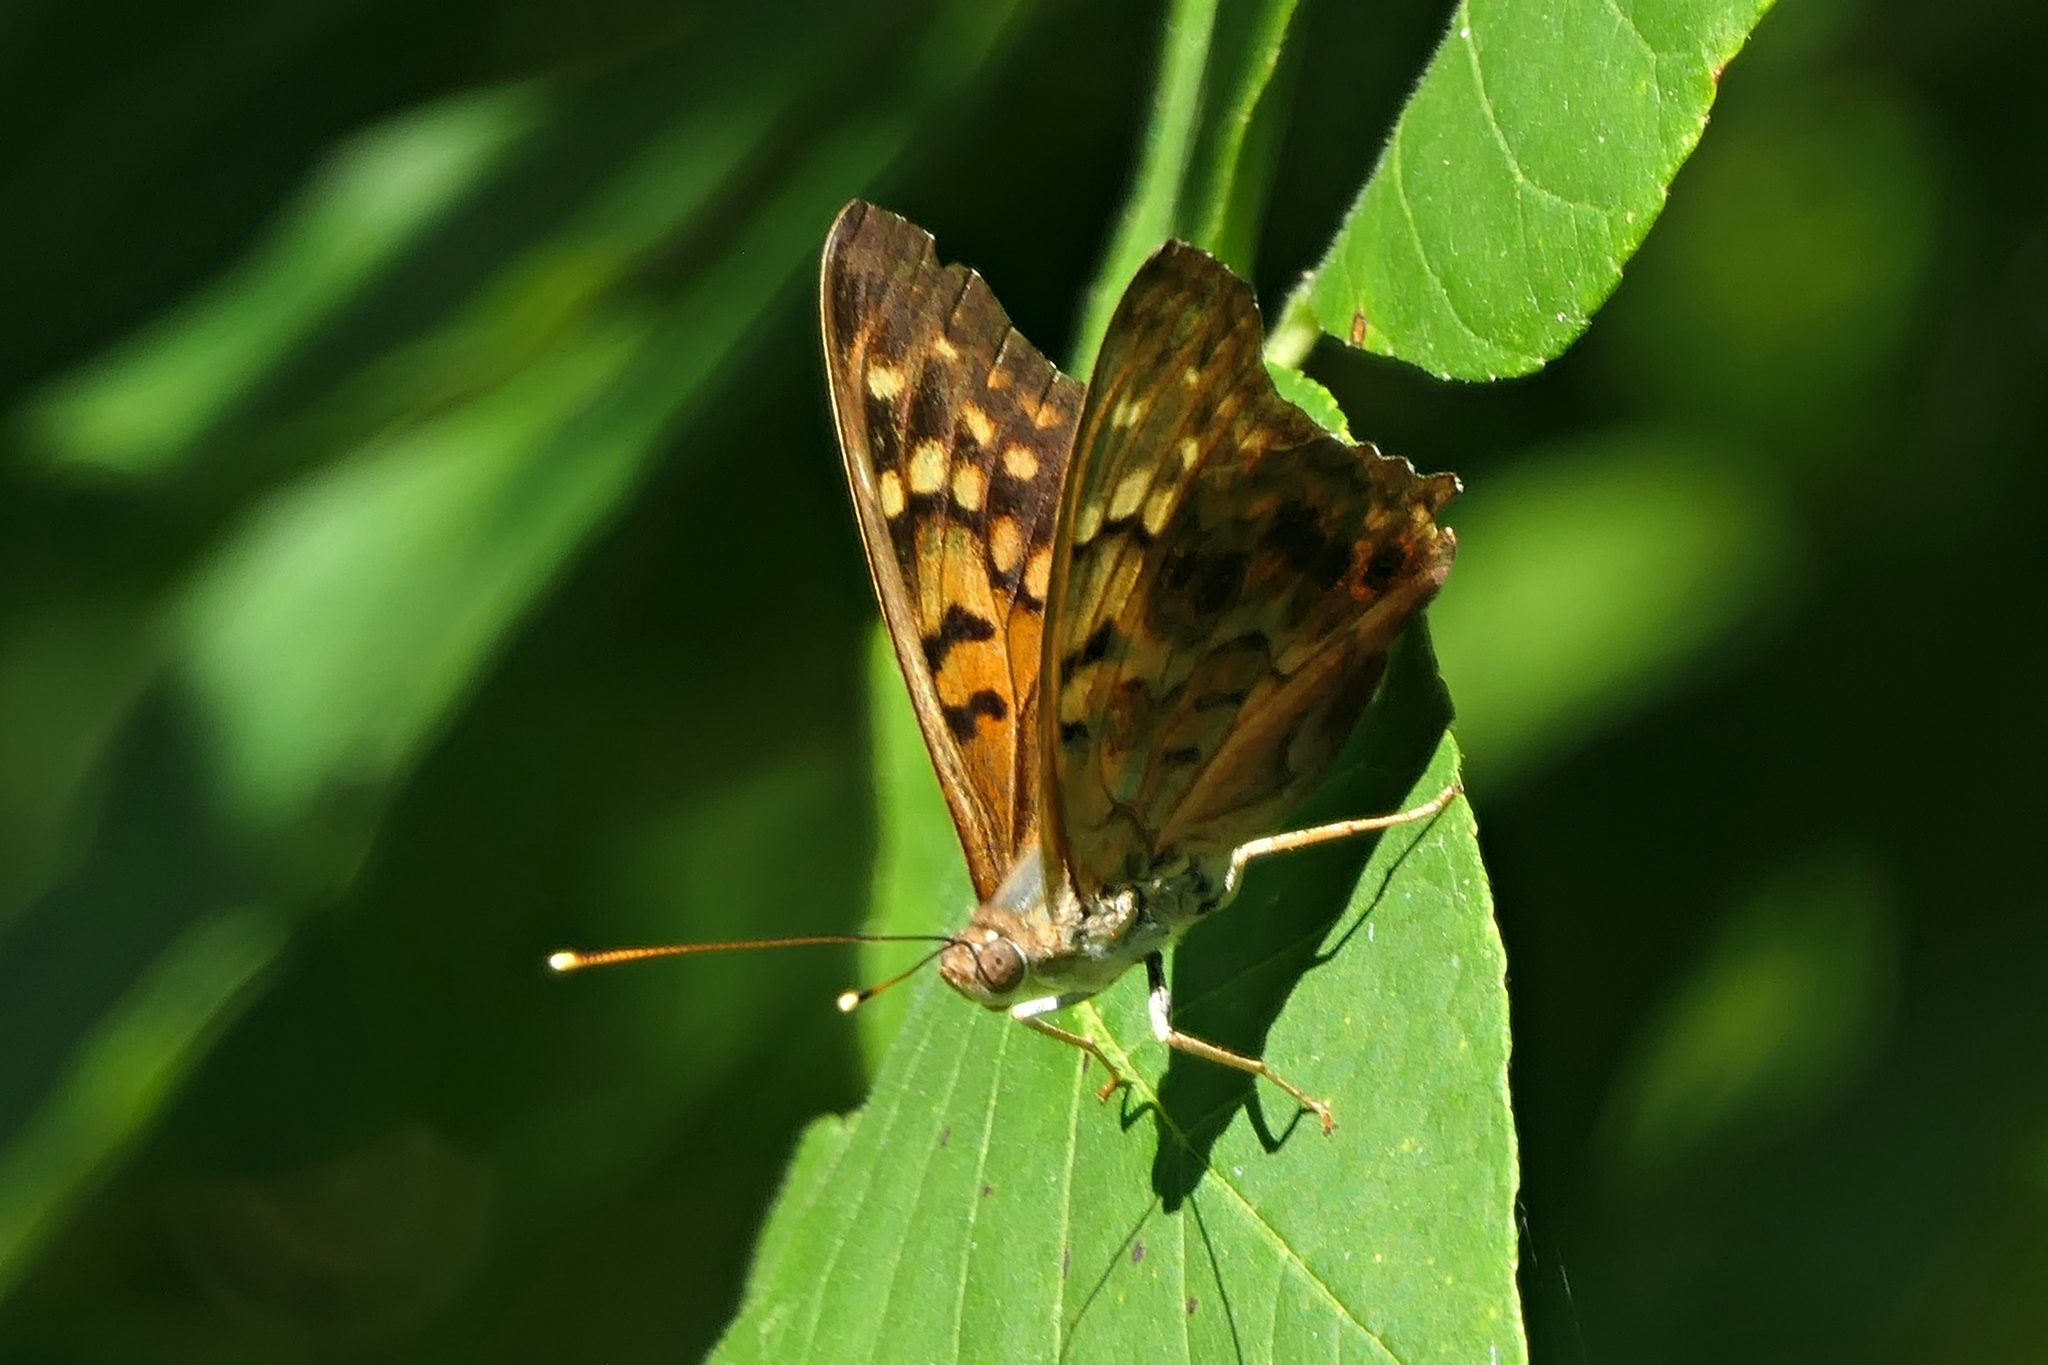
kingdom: Animalia
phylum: Arthropoda
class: Insecta
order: Lepidoptera
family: Nymphalidae
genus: Asterocampa
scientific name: Asterocampa clyton
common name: Tawny emperor
